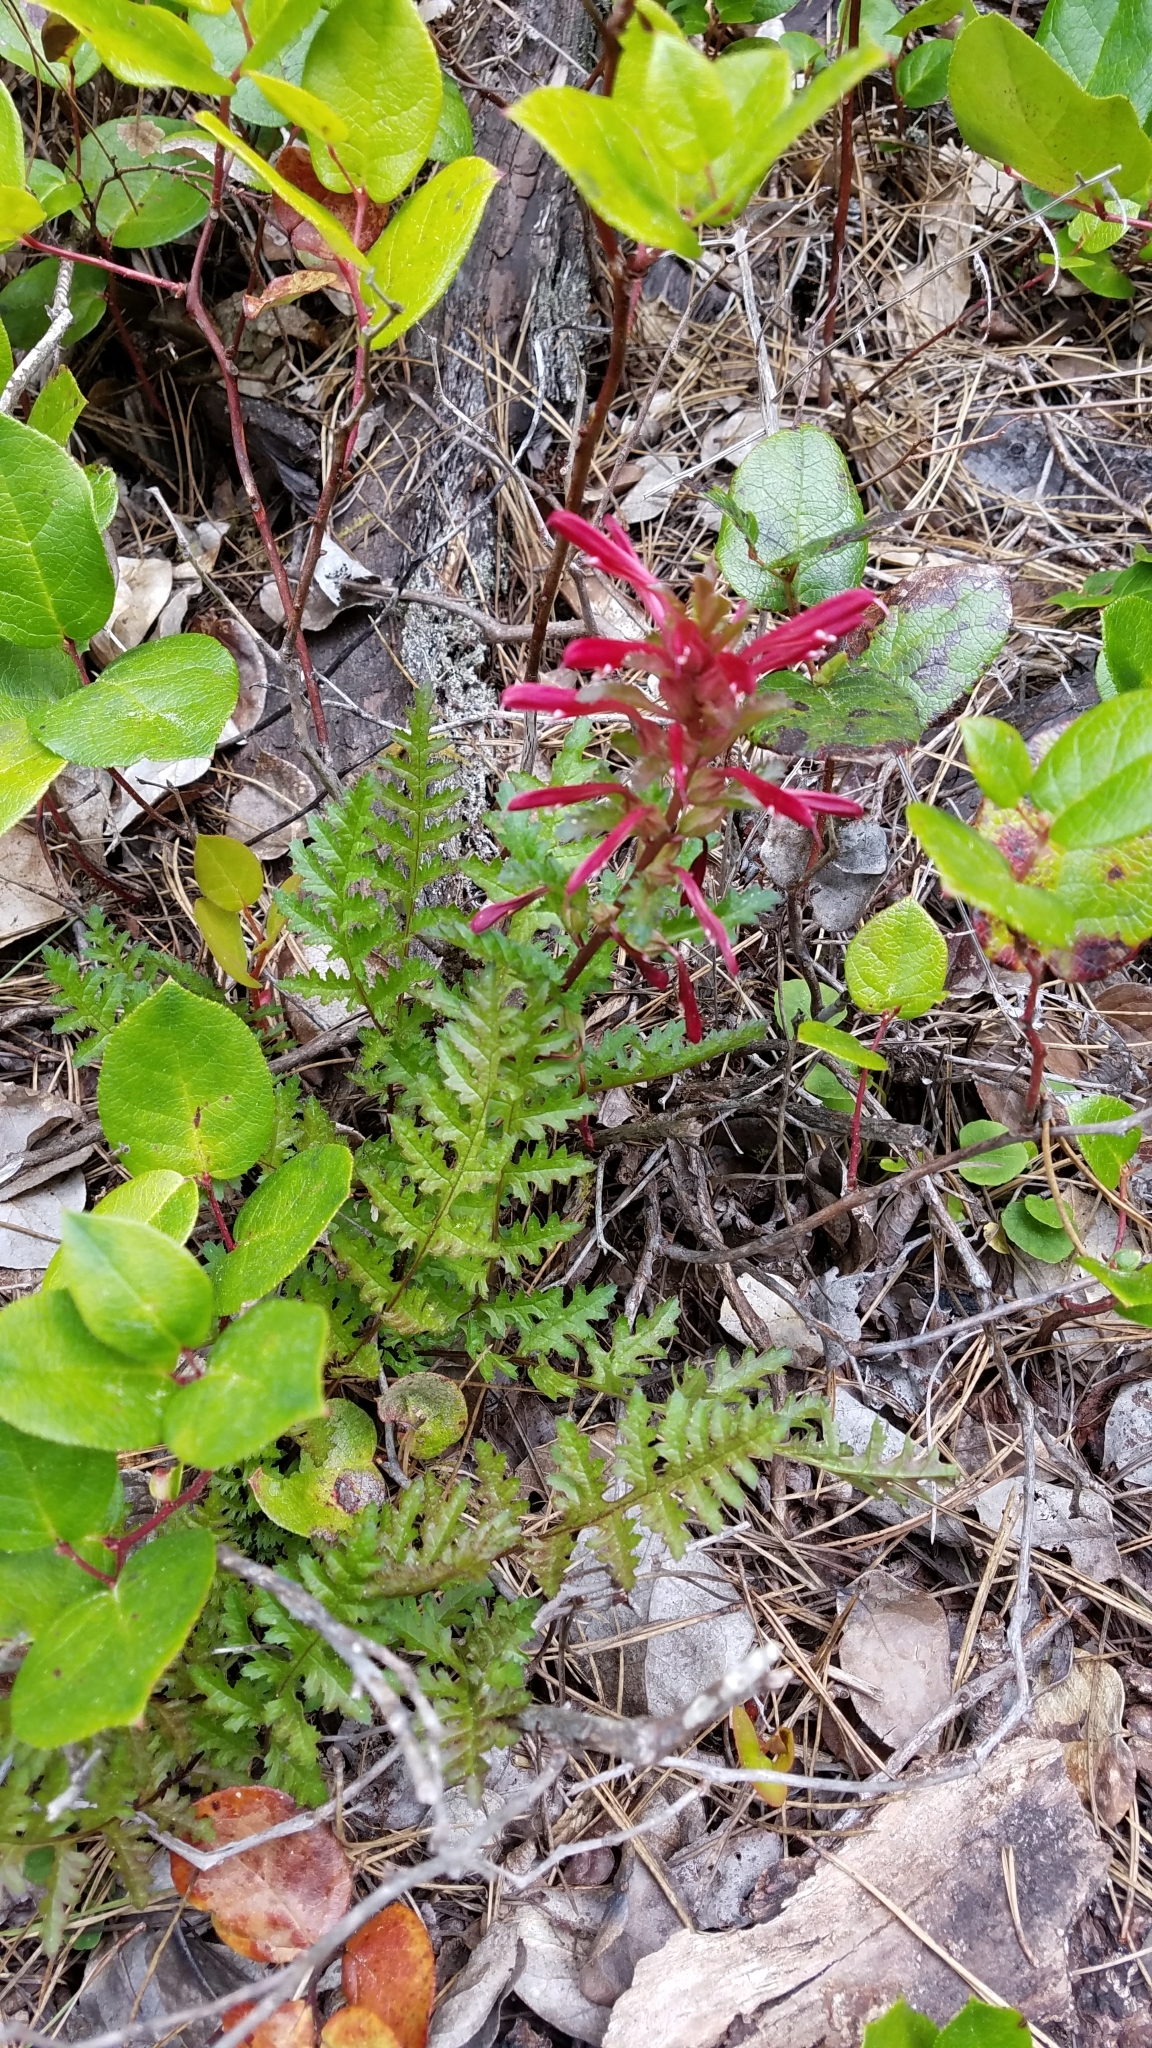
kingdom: Plantae
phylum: Tracheophyta
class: Magnoliopsida
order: Lamiales
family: Orobanchaceae
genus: Pedicularis
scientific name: Pedicularis densiflora
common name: Indian warrior
